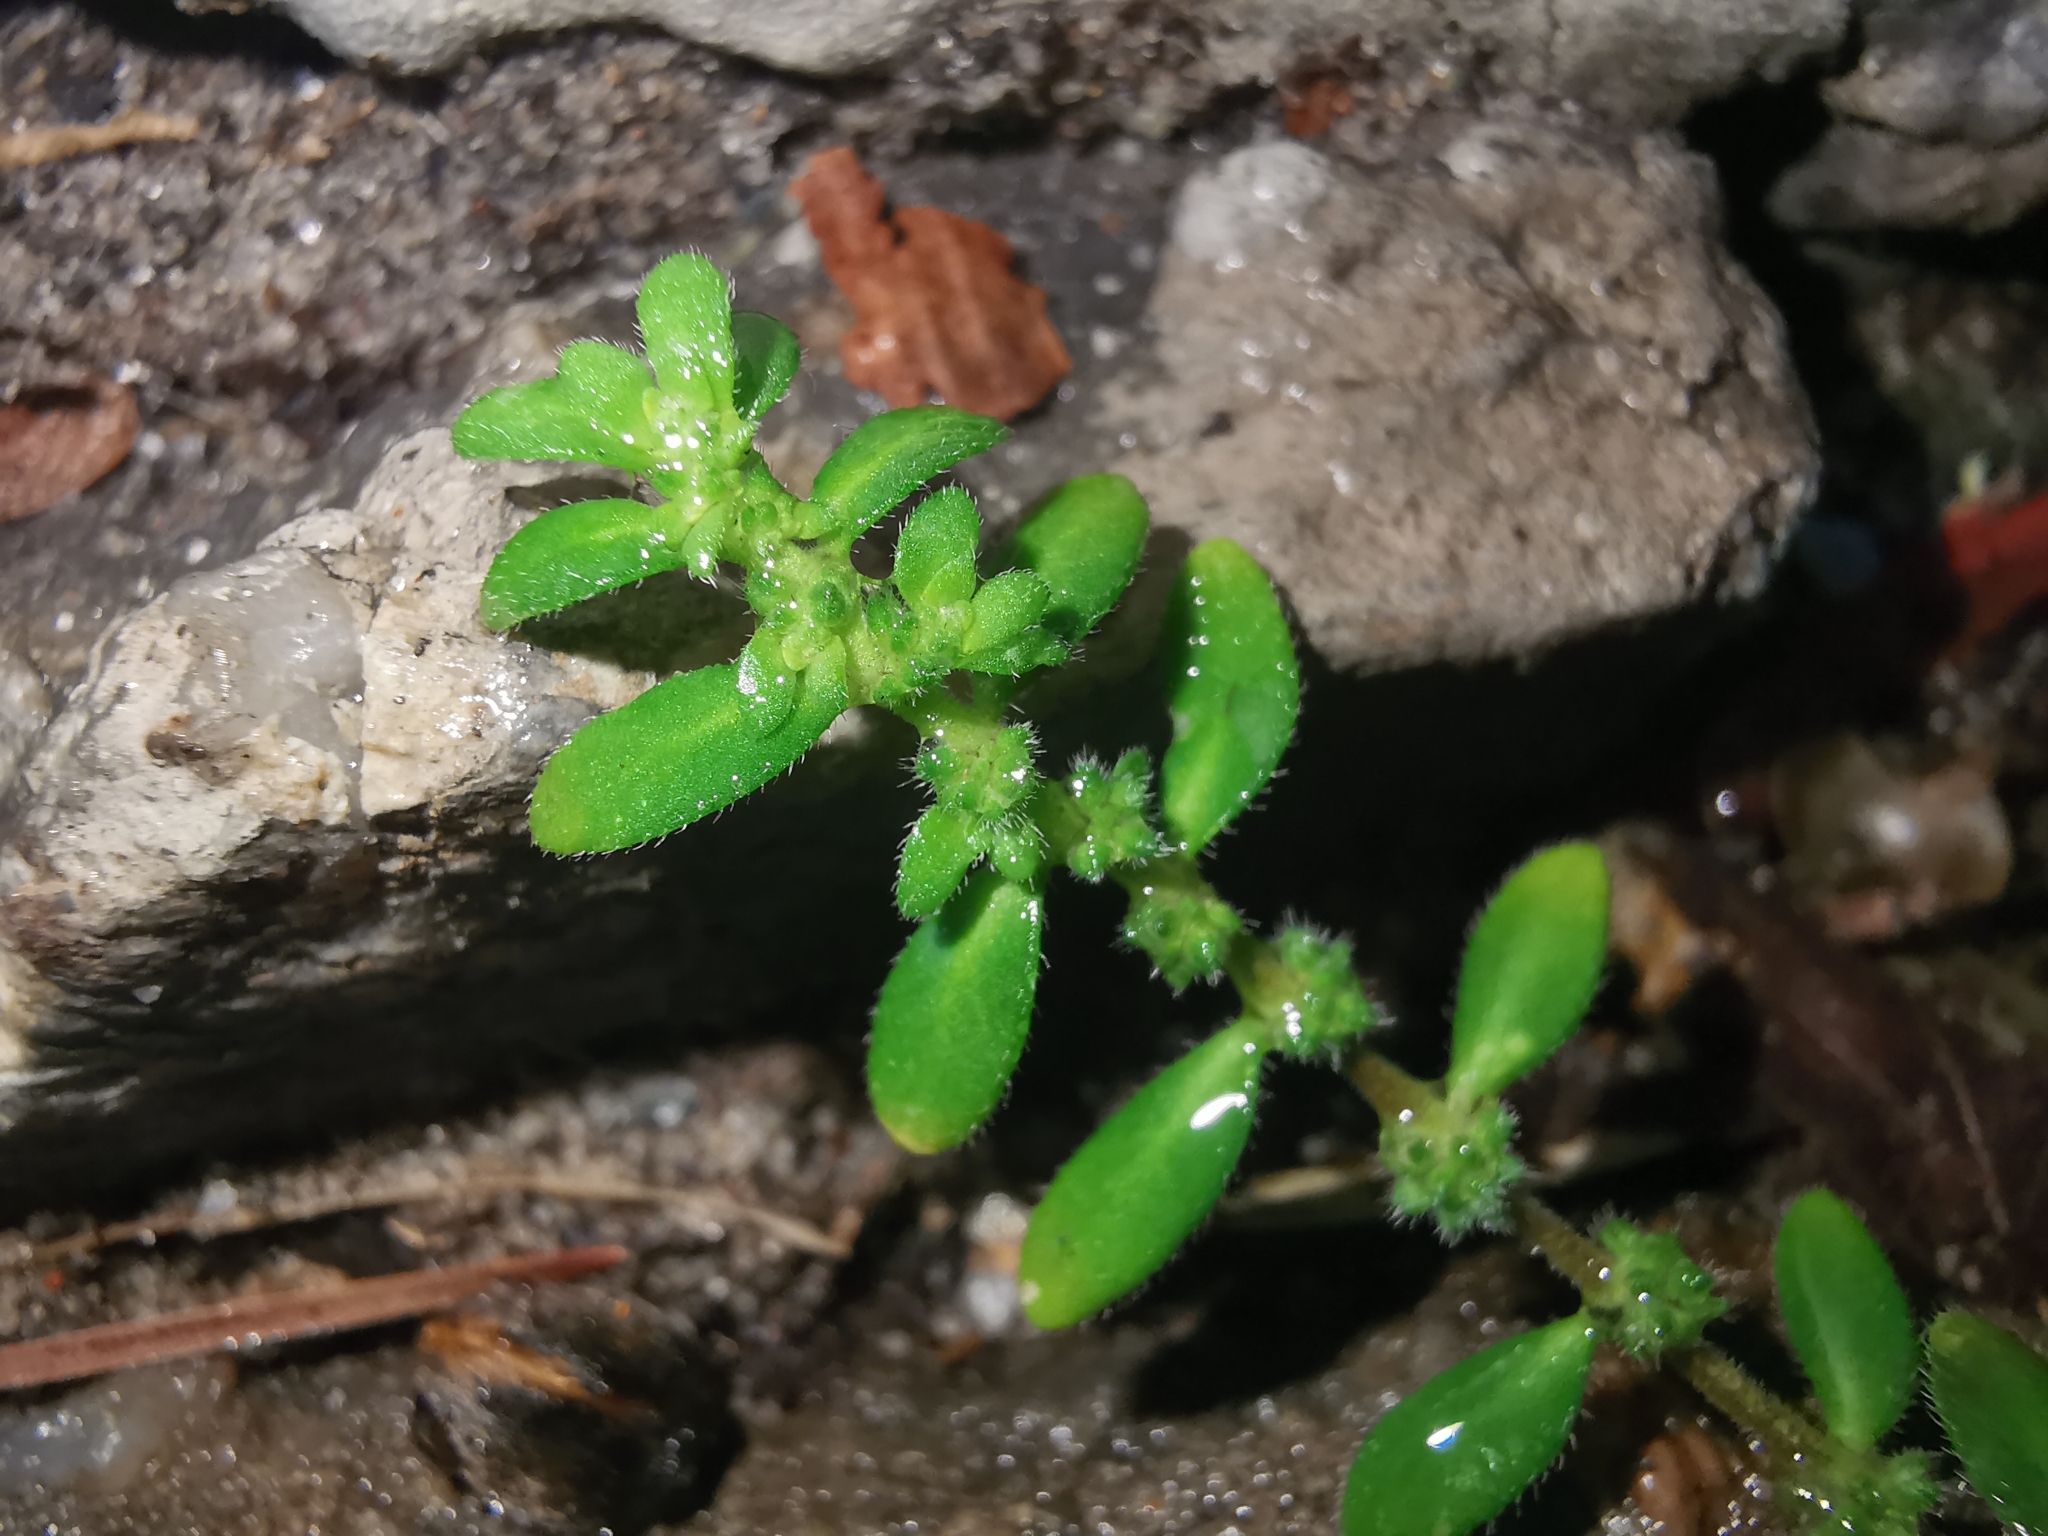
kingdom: Plantae
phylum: Tracheophyta
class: Magnoliopsida
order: Caryophyllales
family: Caryophyllaceae
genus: Herniaria
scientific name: Herniaria hirsuta
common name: Hairy rupturewort
